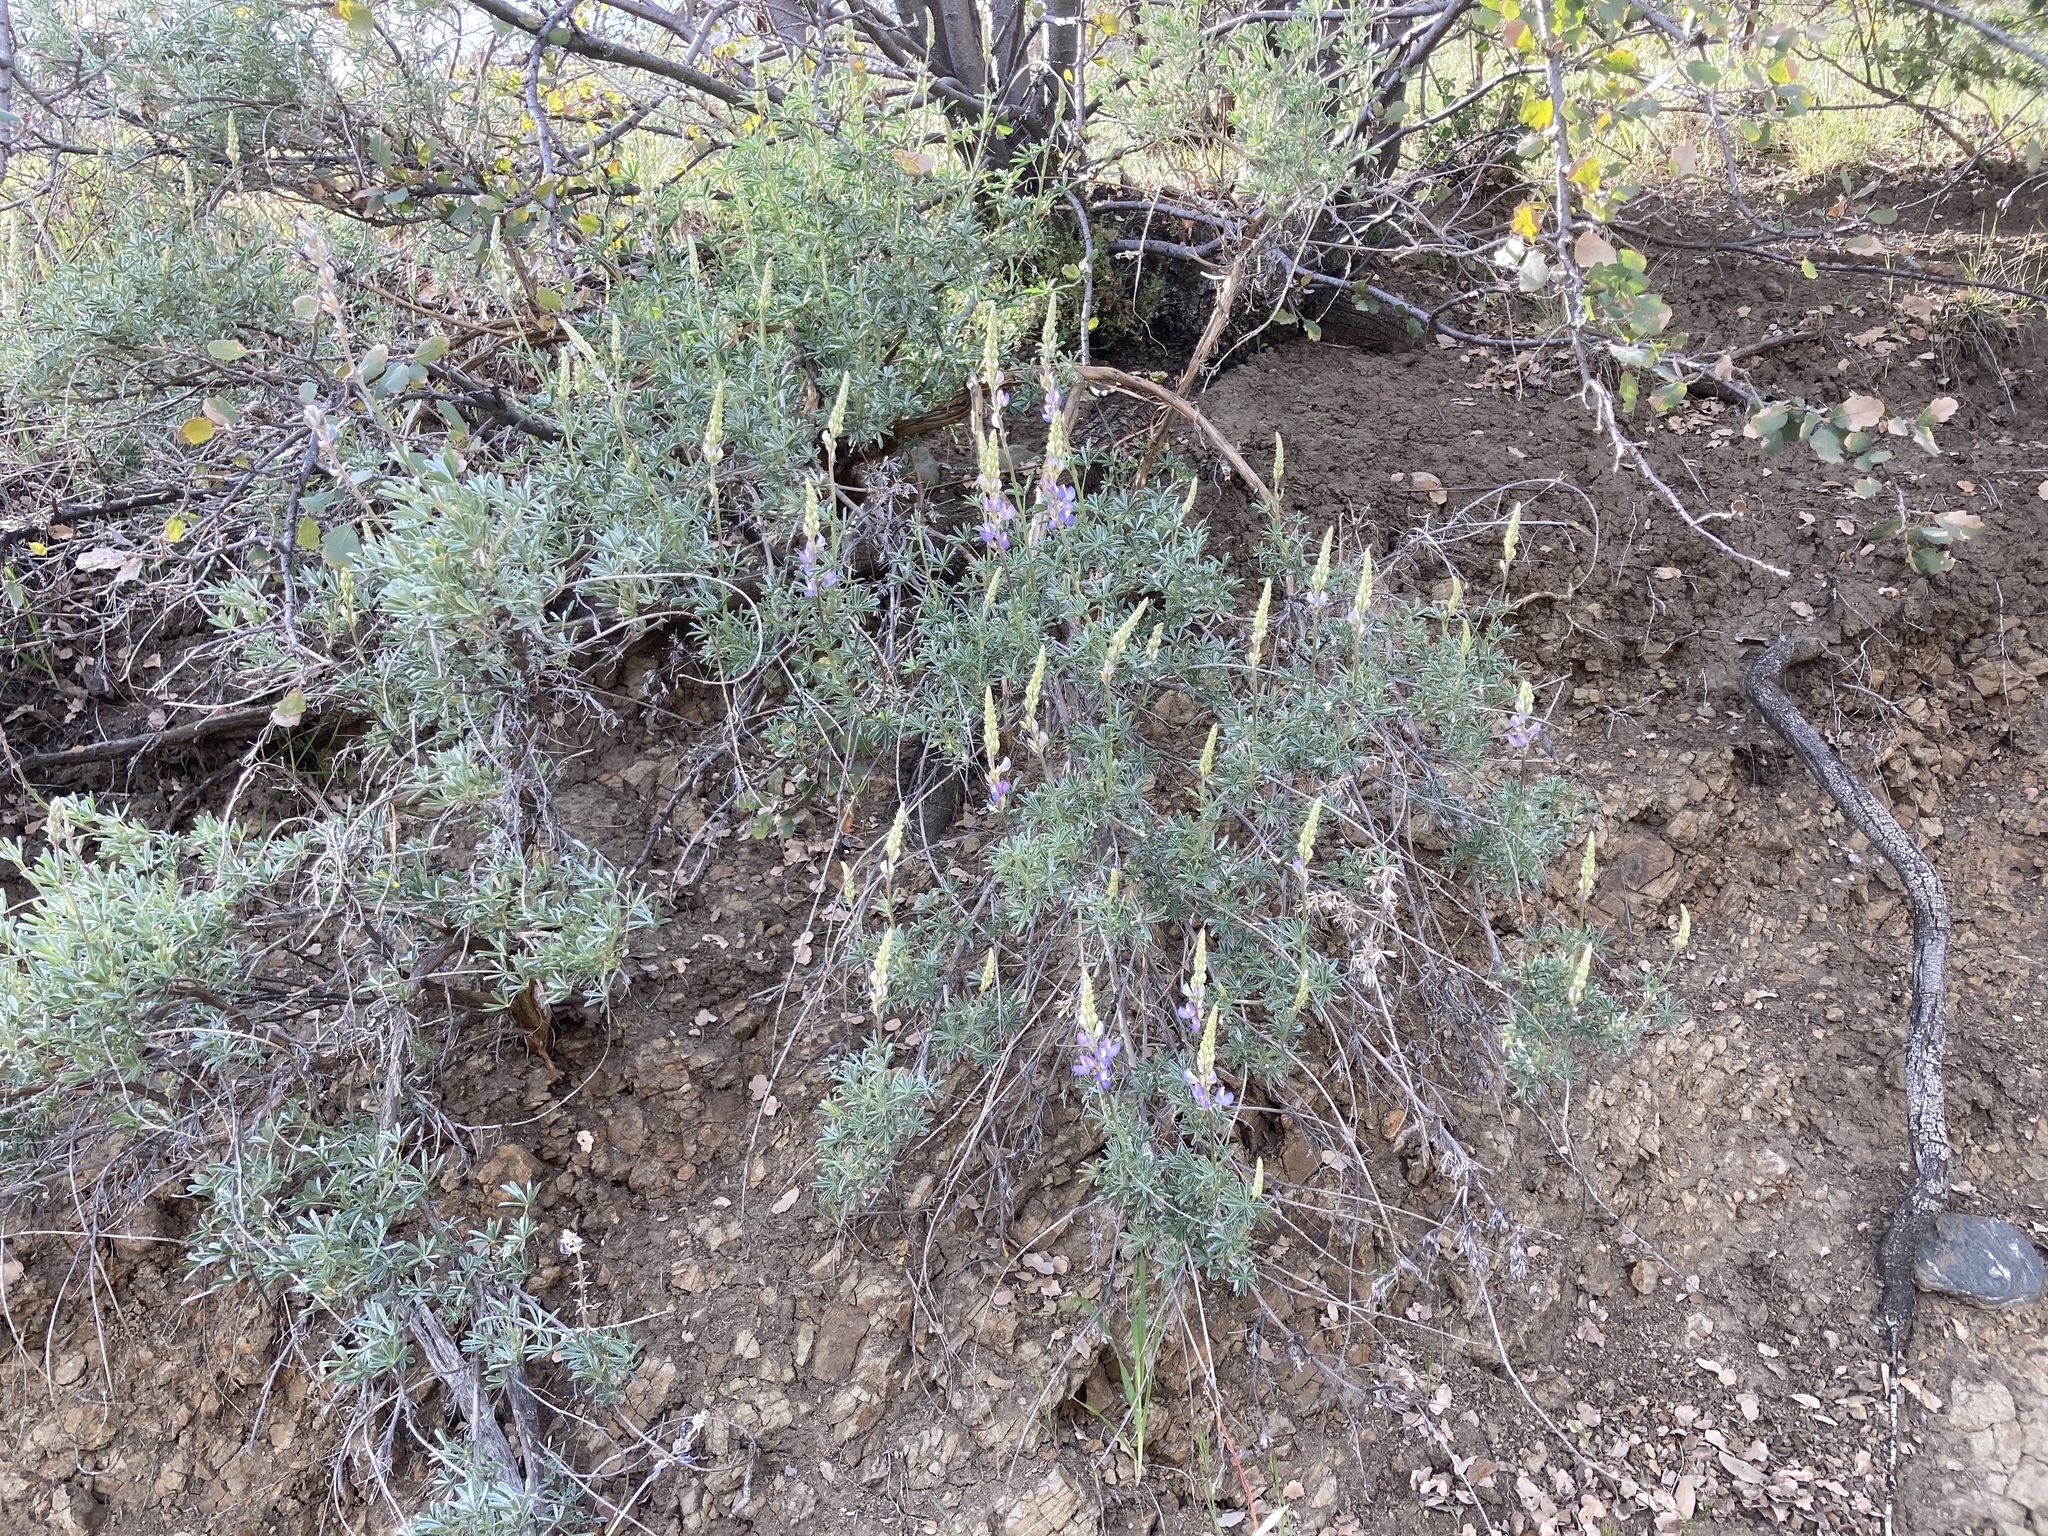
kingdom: Plantae
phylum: Tracheophyta
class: Magnoliopsida
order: Fabales
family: Fabaceae
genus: Lupinus
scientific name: Lupinus albifrons
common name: Foothill lupine
